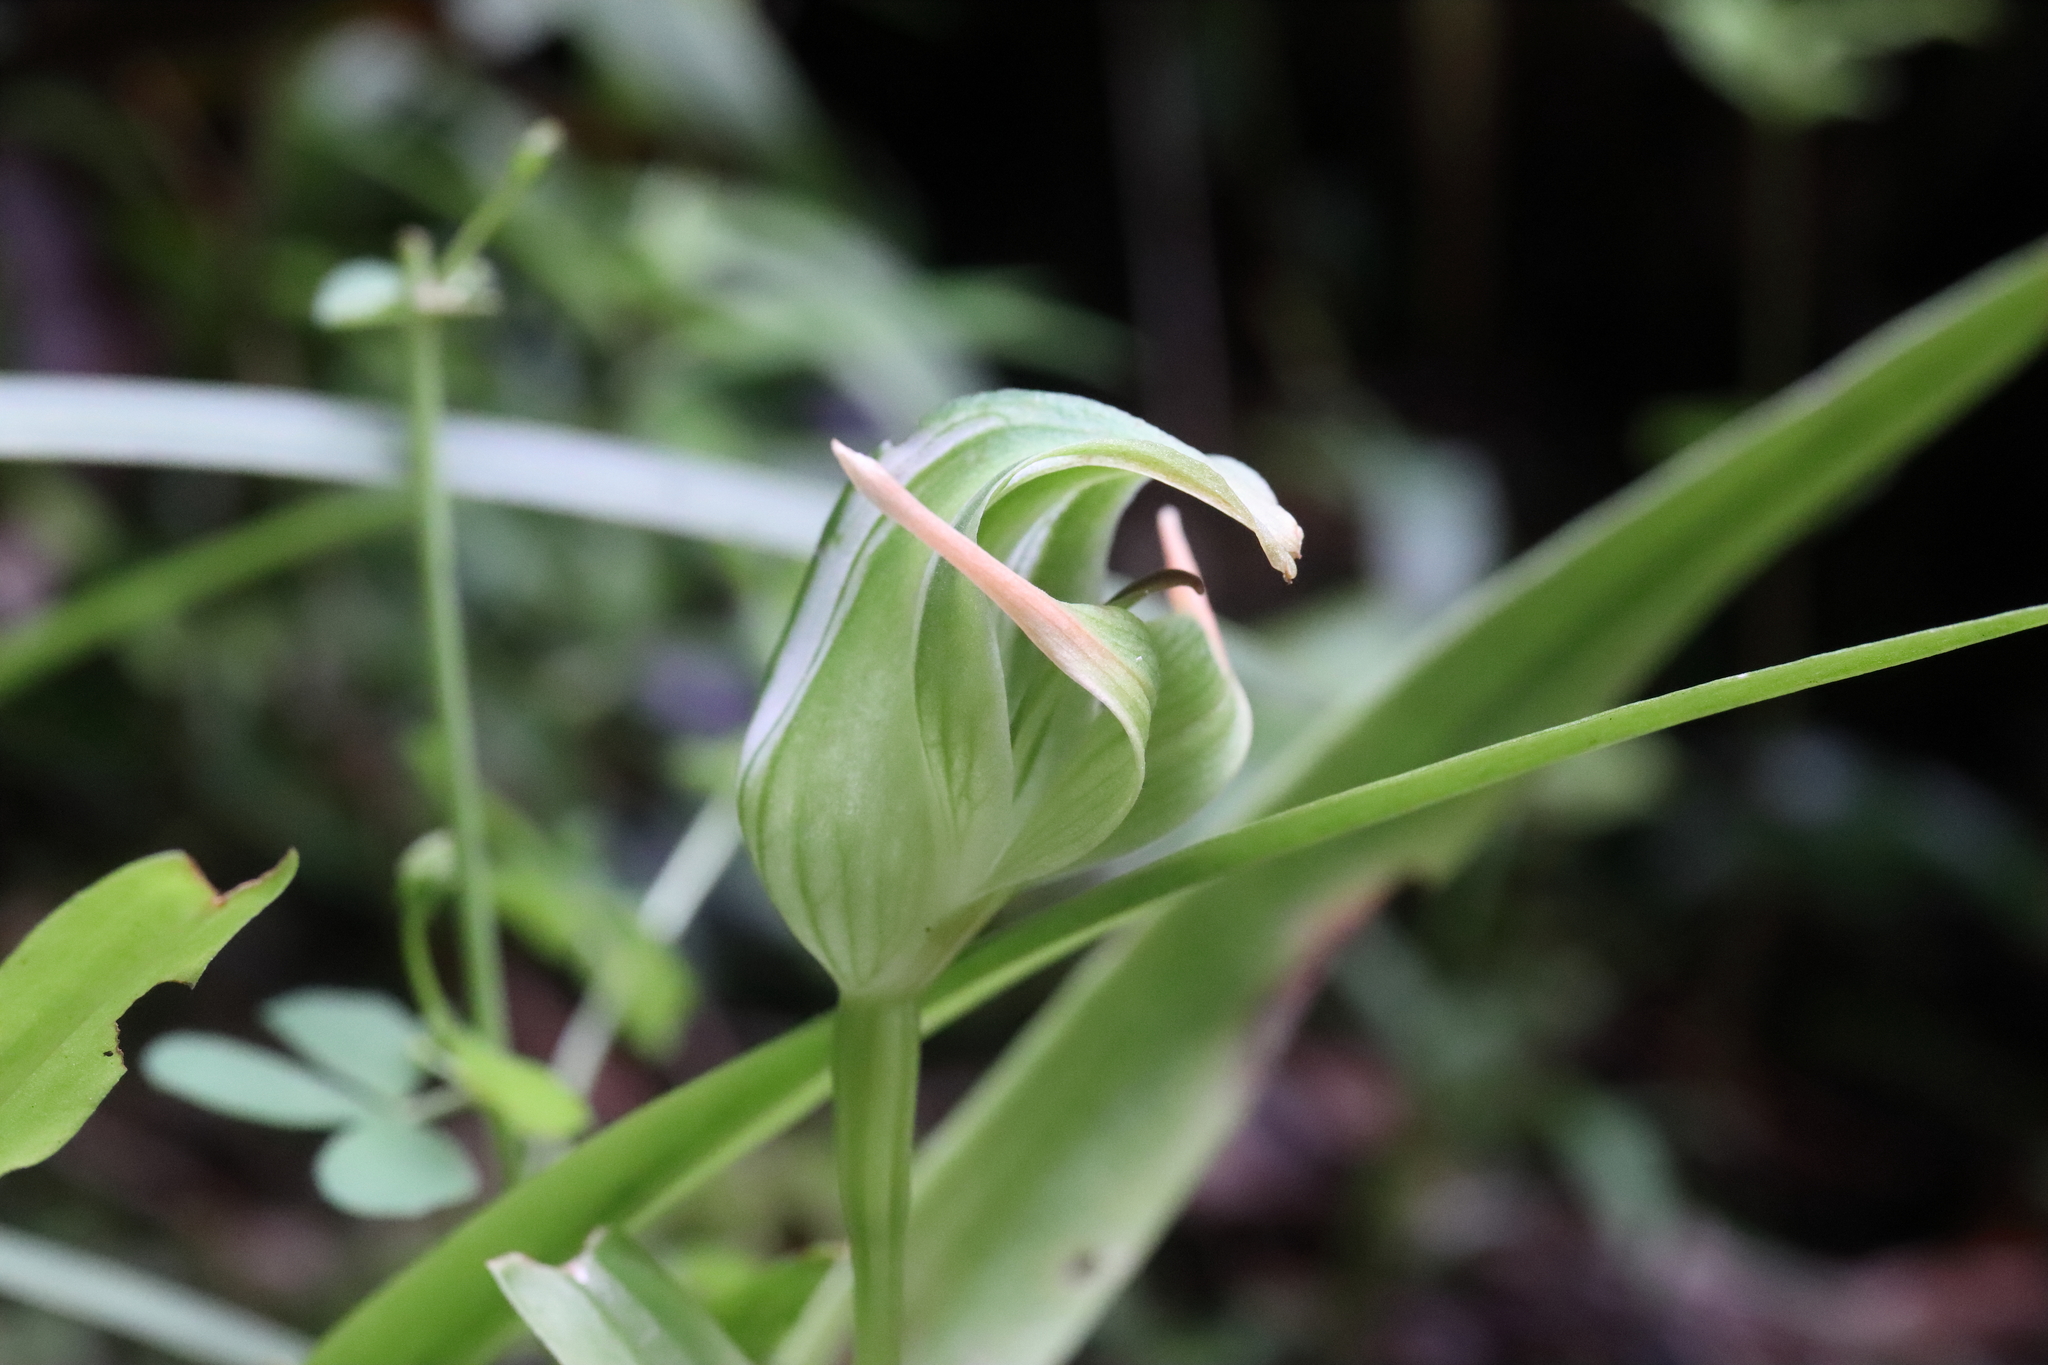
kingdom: Plantae
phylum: Tracheophyta
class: Liliopsida
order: Asparagales
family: Orchidaceae
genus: Pterostylis
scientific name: Pterostylis patens
